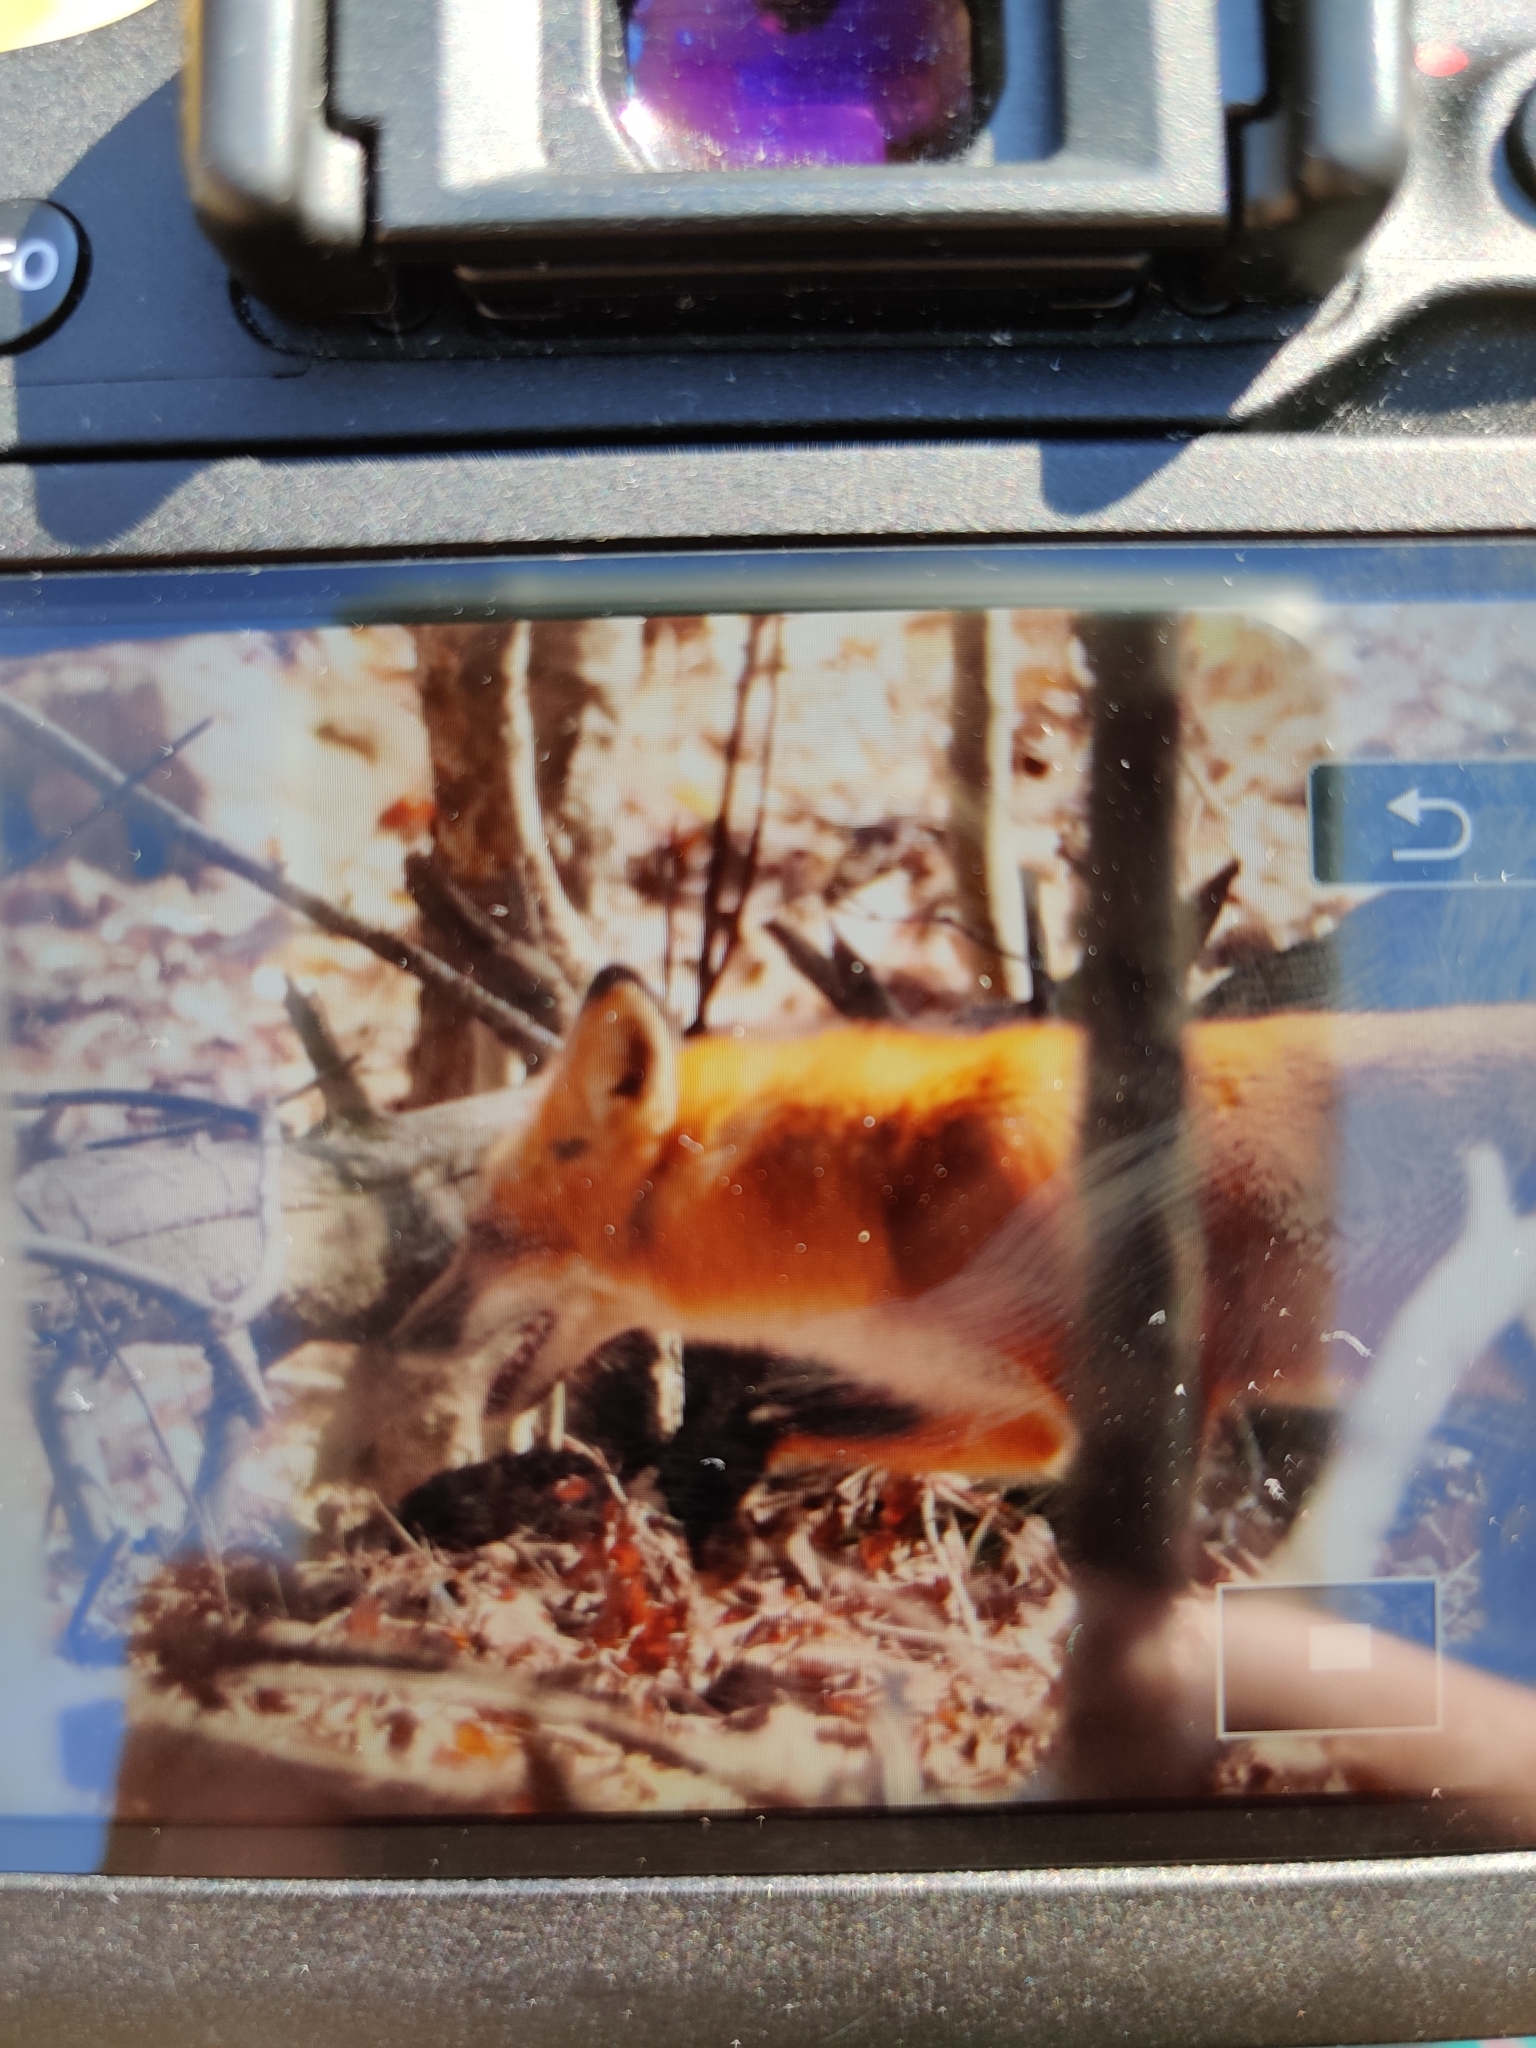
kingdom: Animalia
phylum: Chordata
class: Mammalia
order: Carnivora
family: Canidae
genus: Vulpes
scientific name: Vulpes vulpes
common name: Red fox
